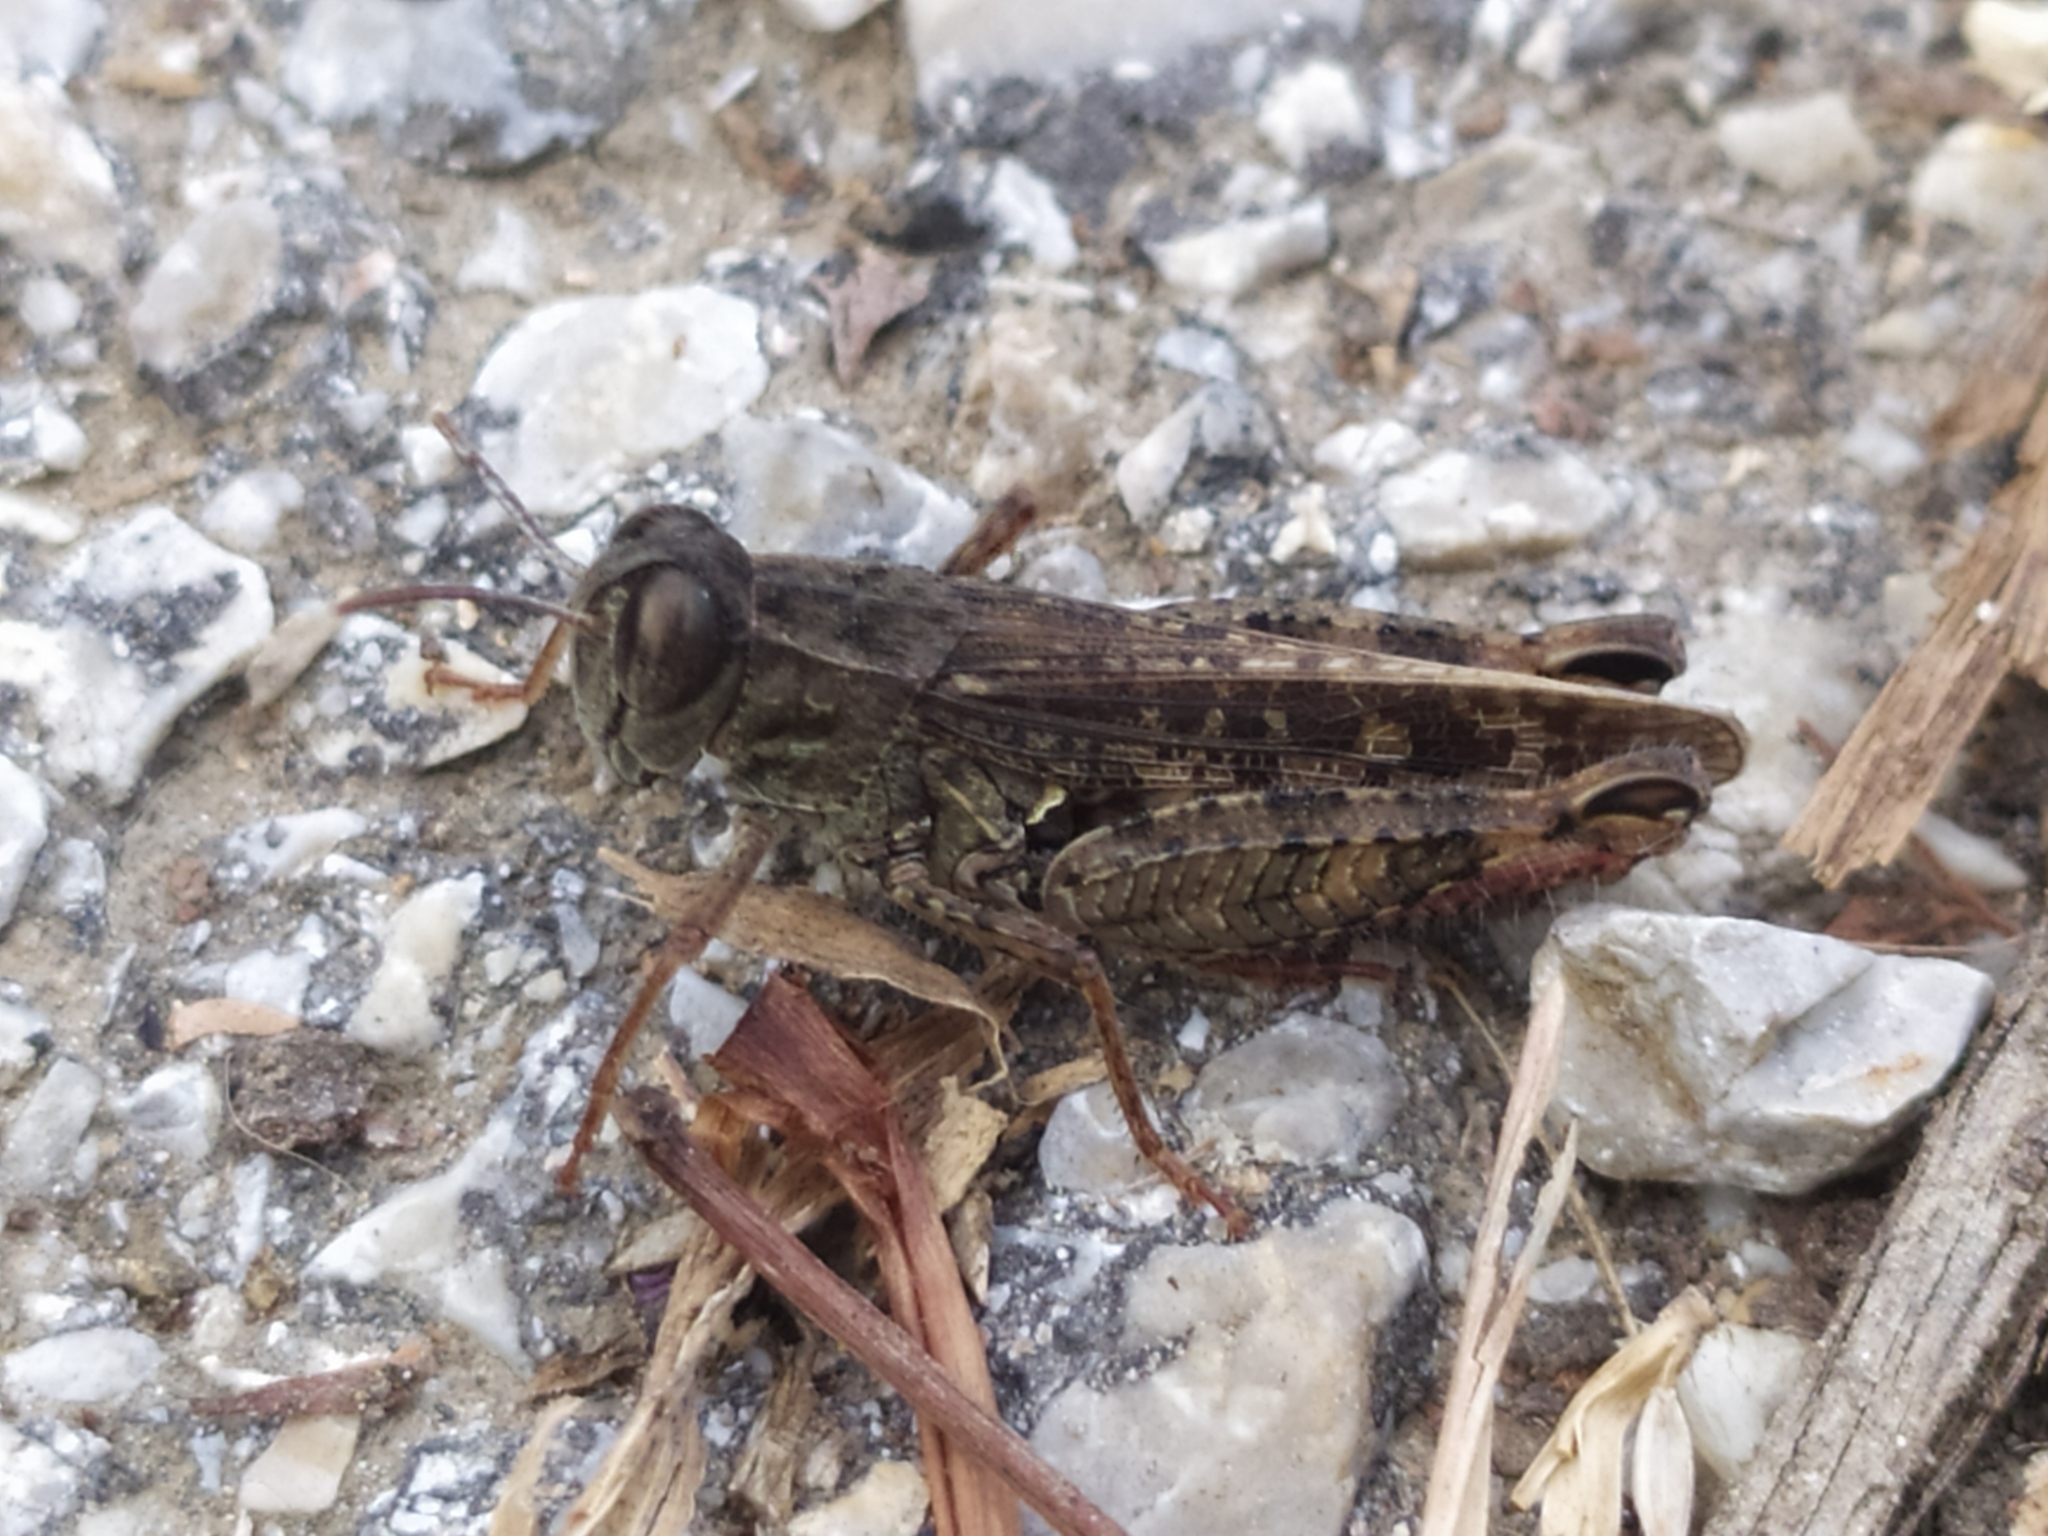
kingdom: Animalia
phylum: Arthropoda
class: Insecta
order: Orthoptera
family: Acrididae
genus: Calliptamus
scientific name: Calliptamus italicus
